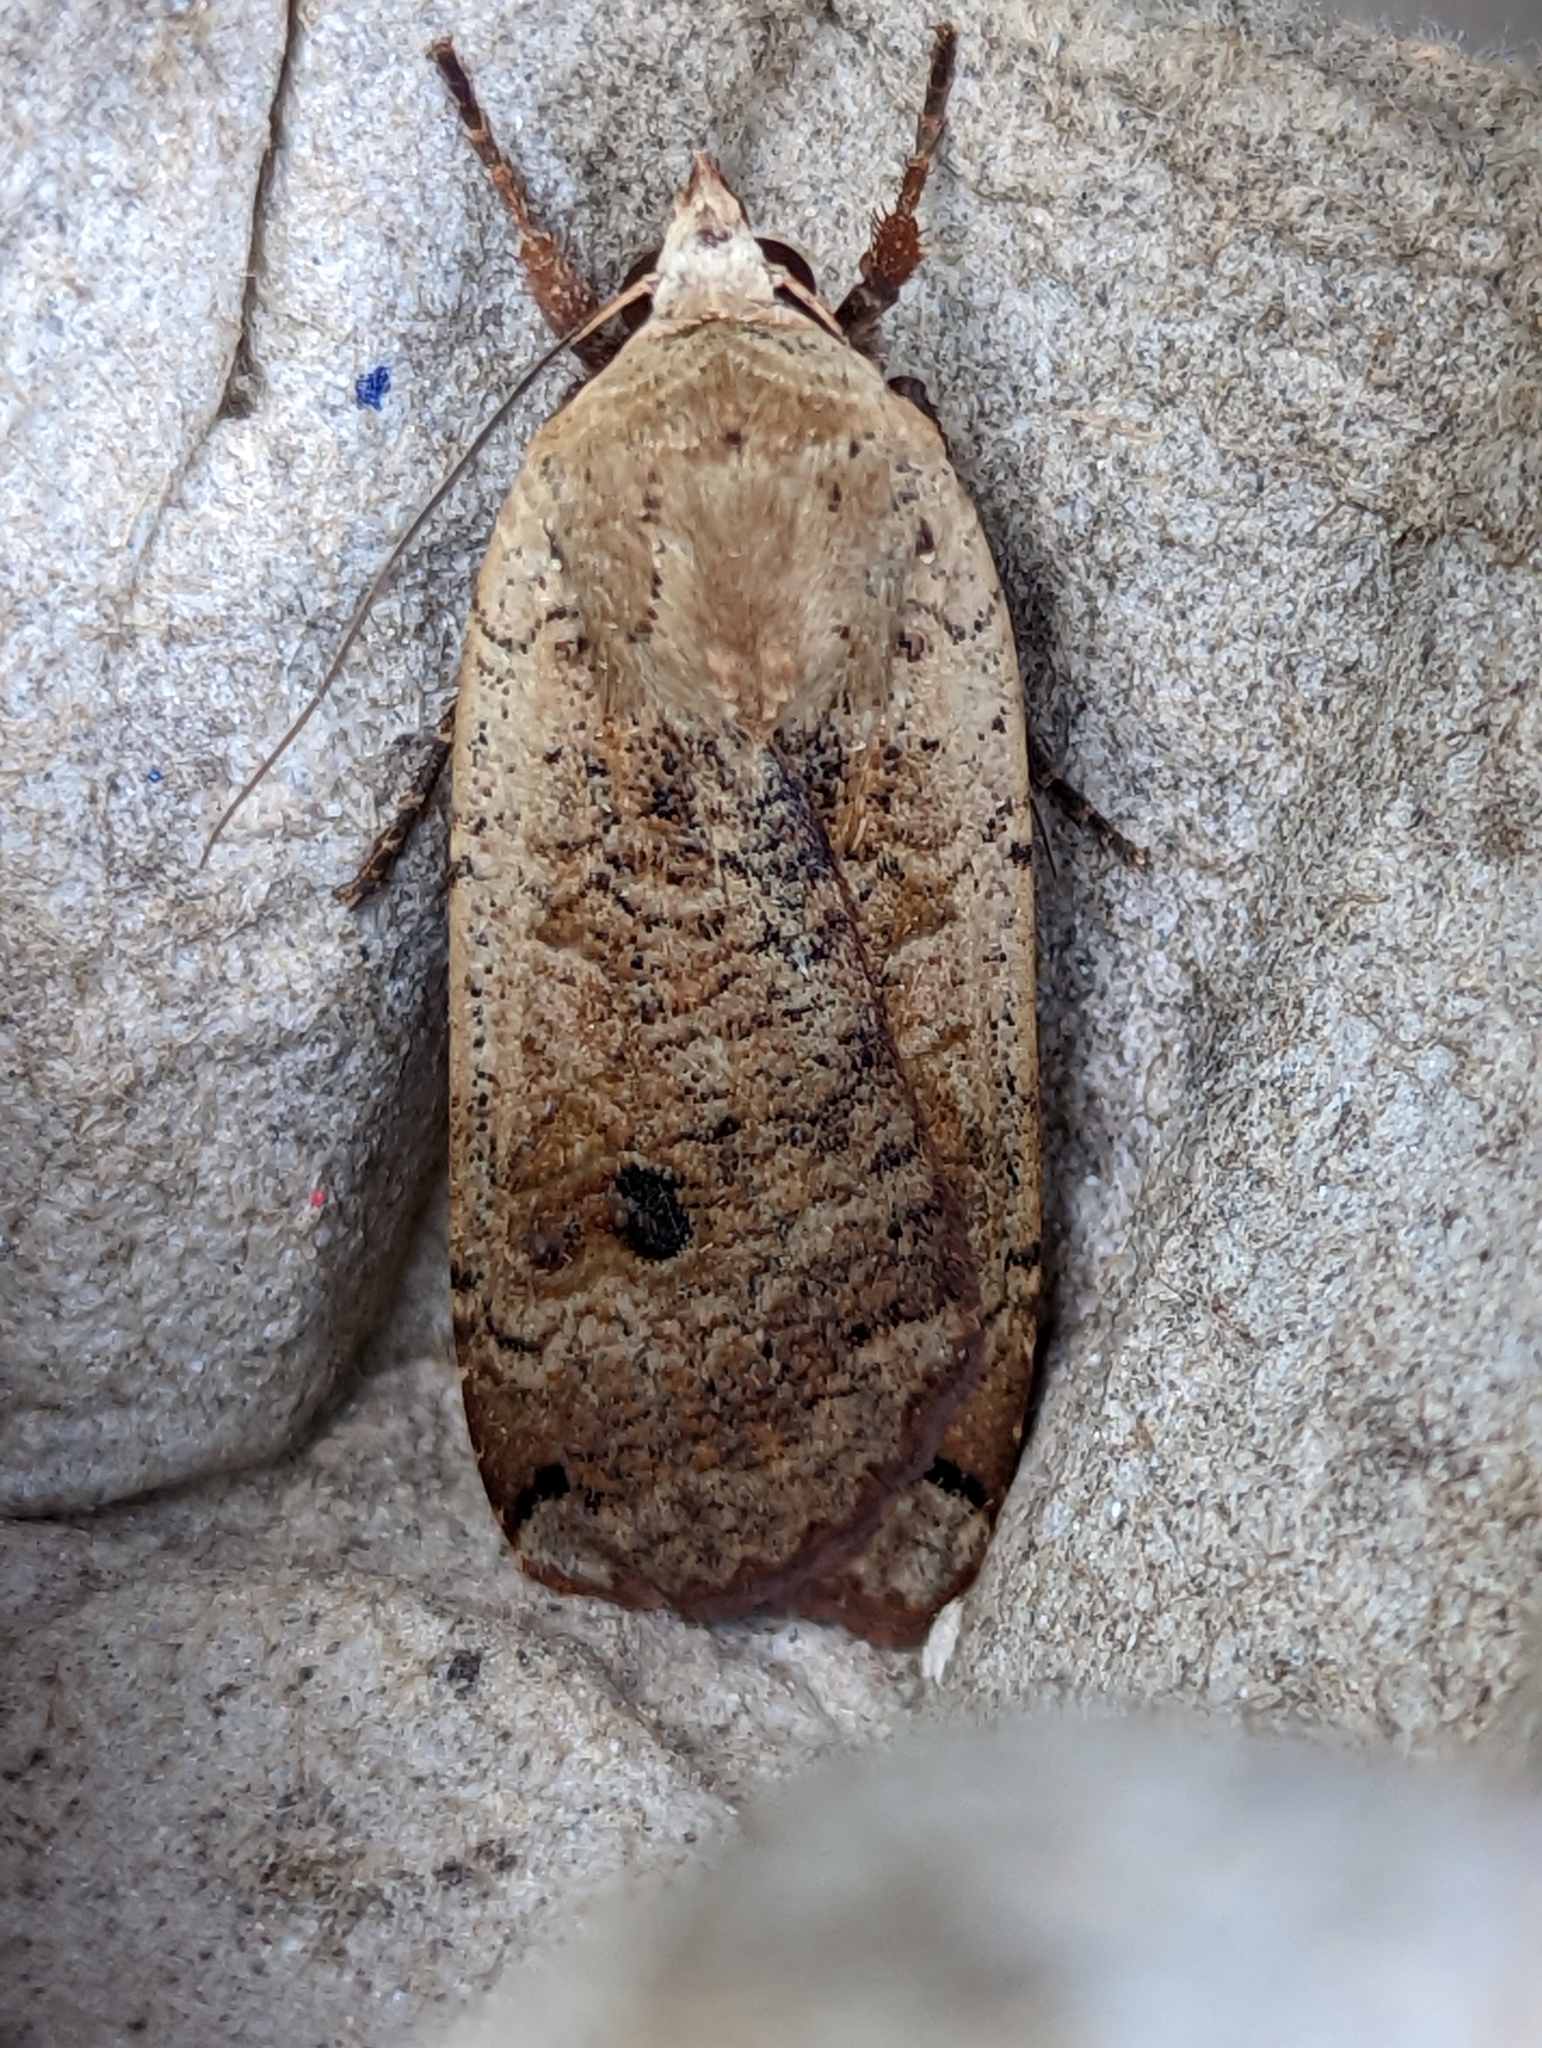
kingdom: Animalia
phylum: Arthropoda
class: Insecta
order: Lepidoptera
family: Noctuidae
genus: Noctua
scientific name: Noctua pronuba
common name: Large yellow underwing
